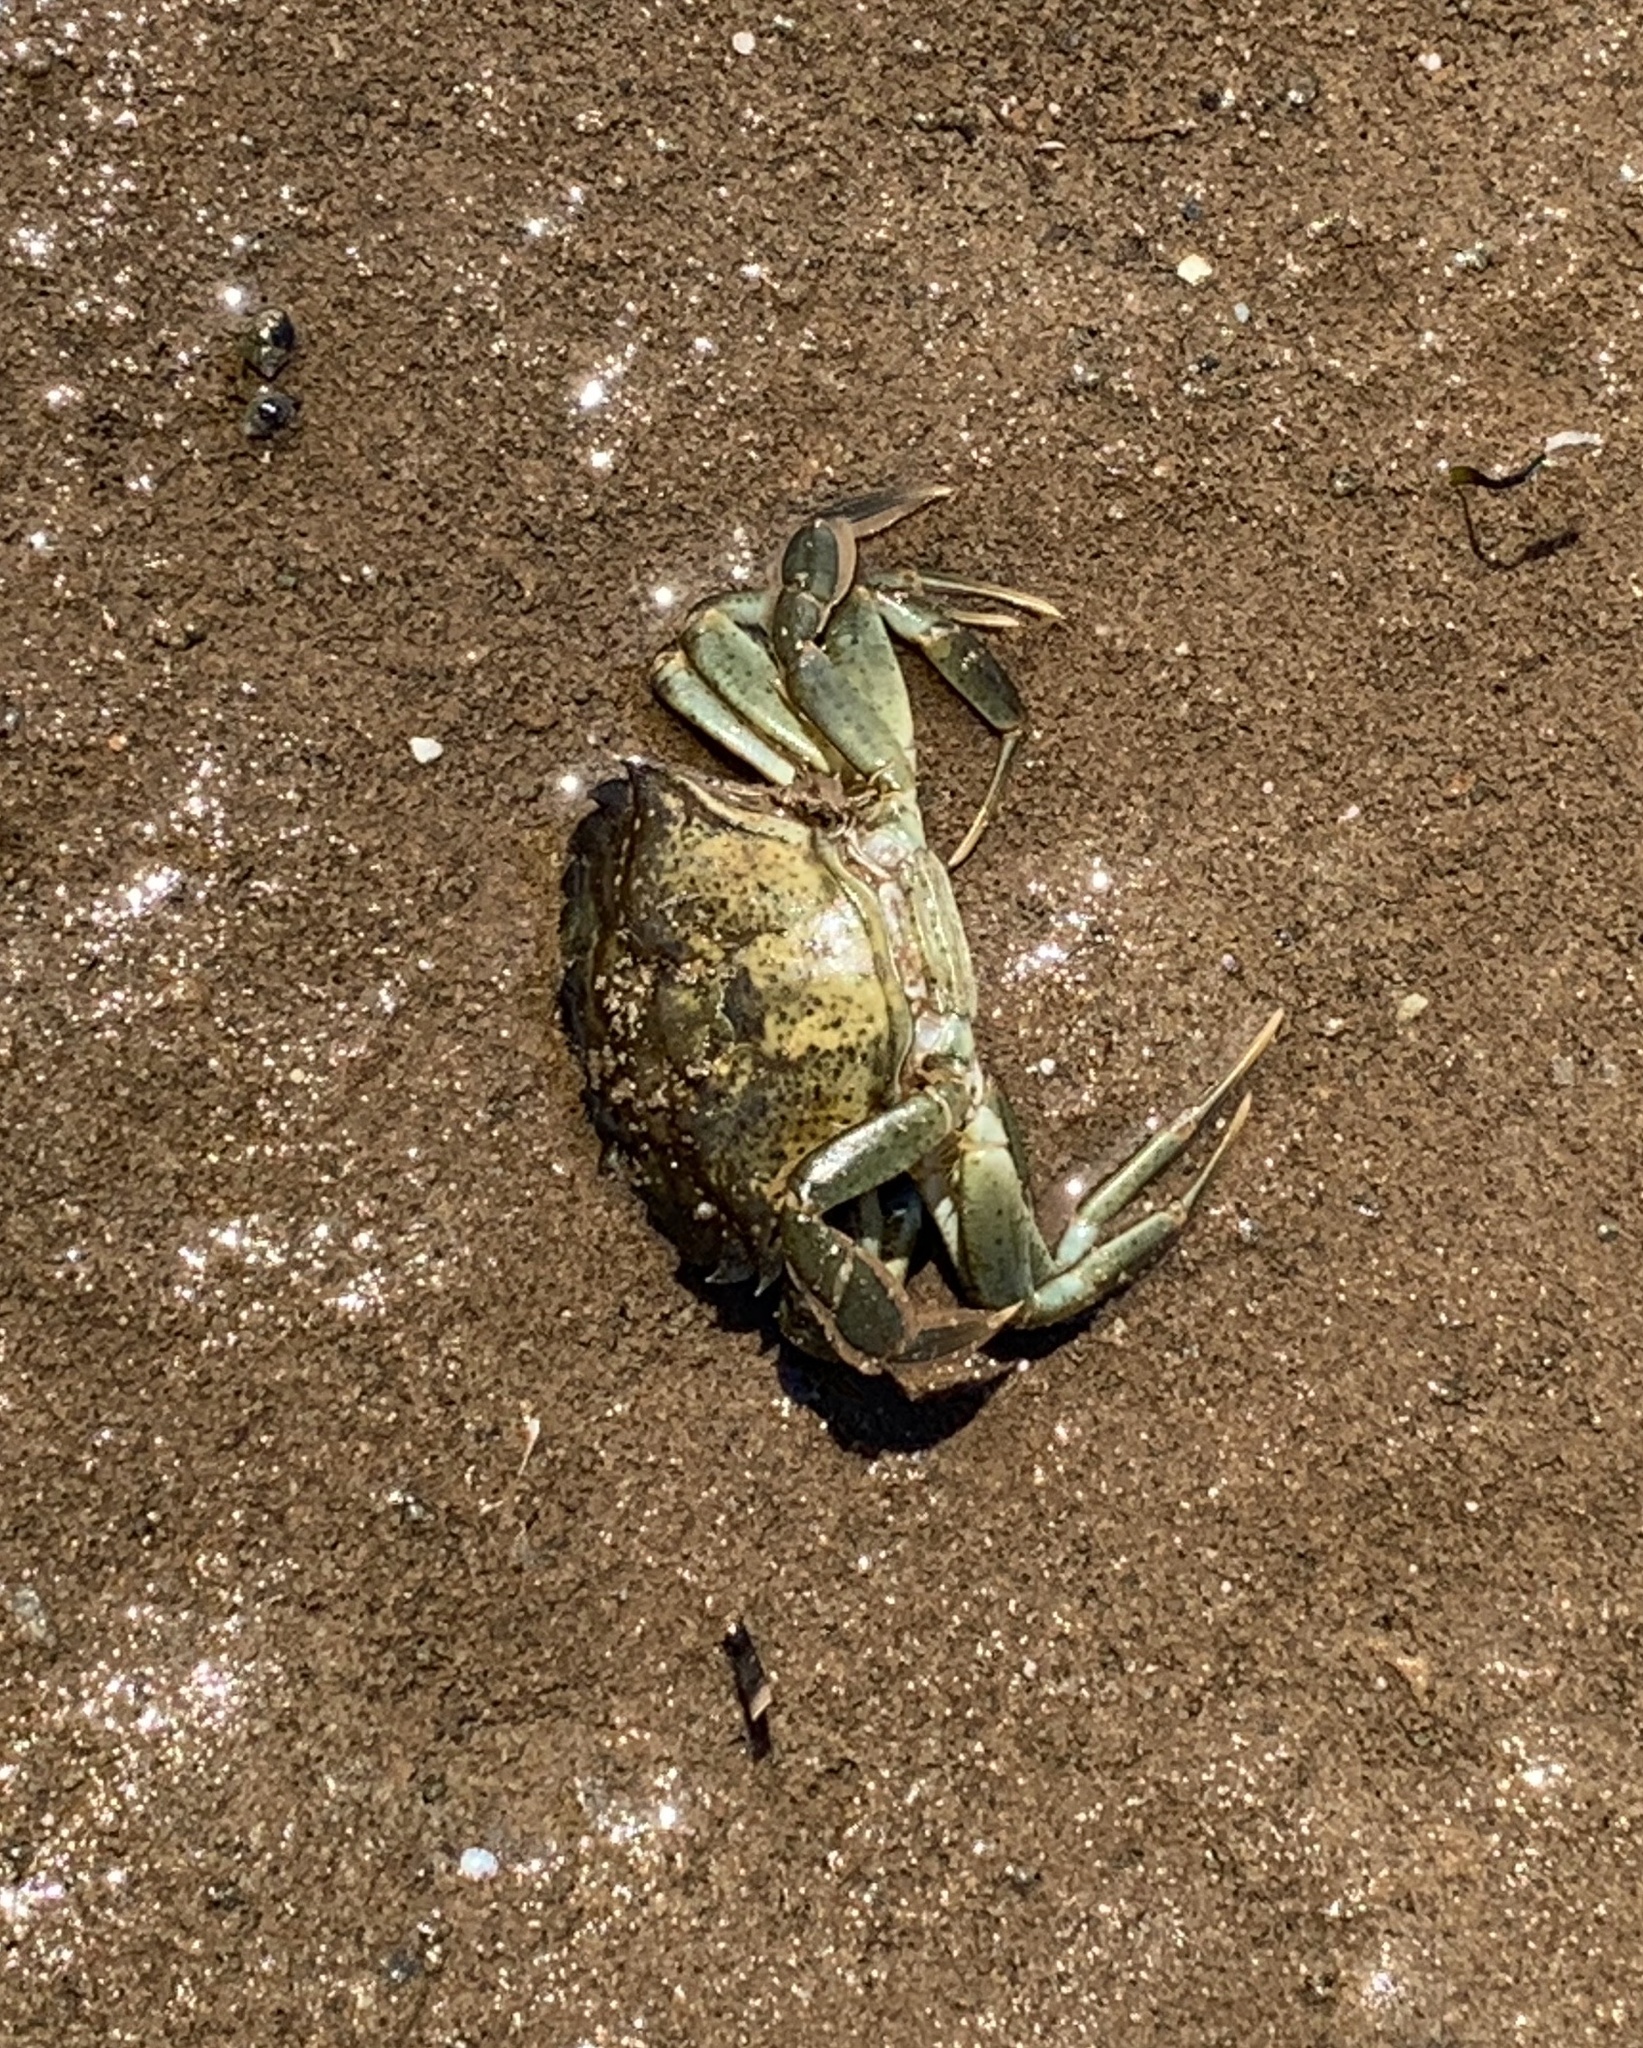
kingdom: Animalia
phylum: Arthropoda
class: Malacostraca
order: Decapoda
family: Carcinidae
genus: Carcinus
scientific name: Carcinus maenas
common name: European green crab
